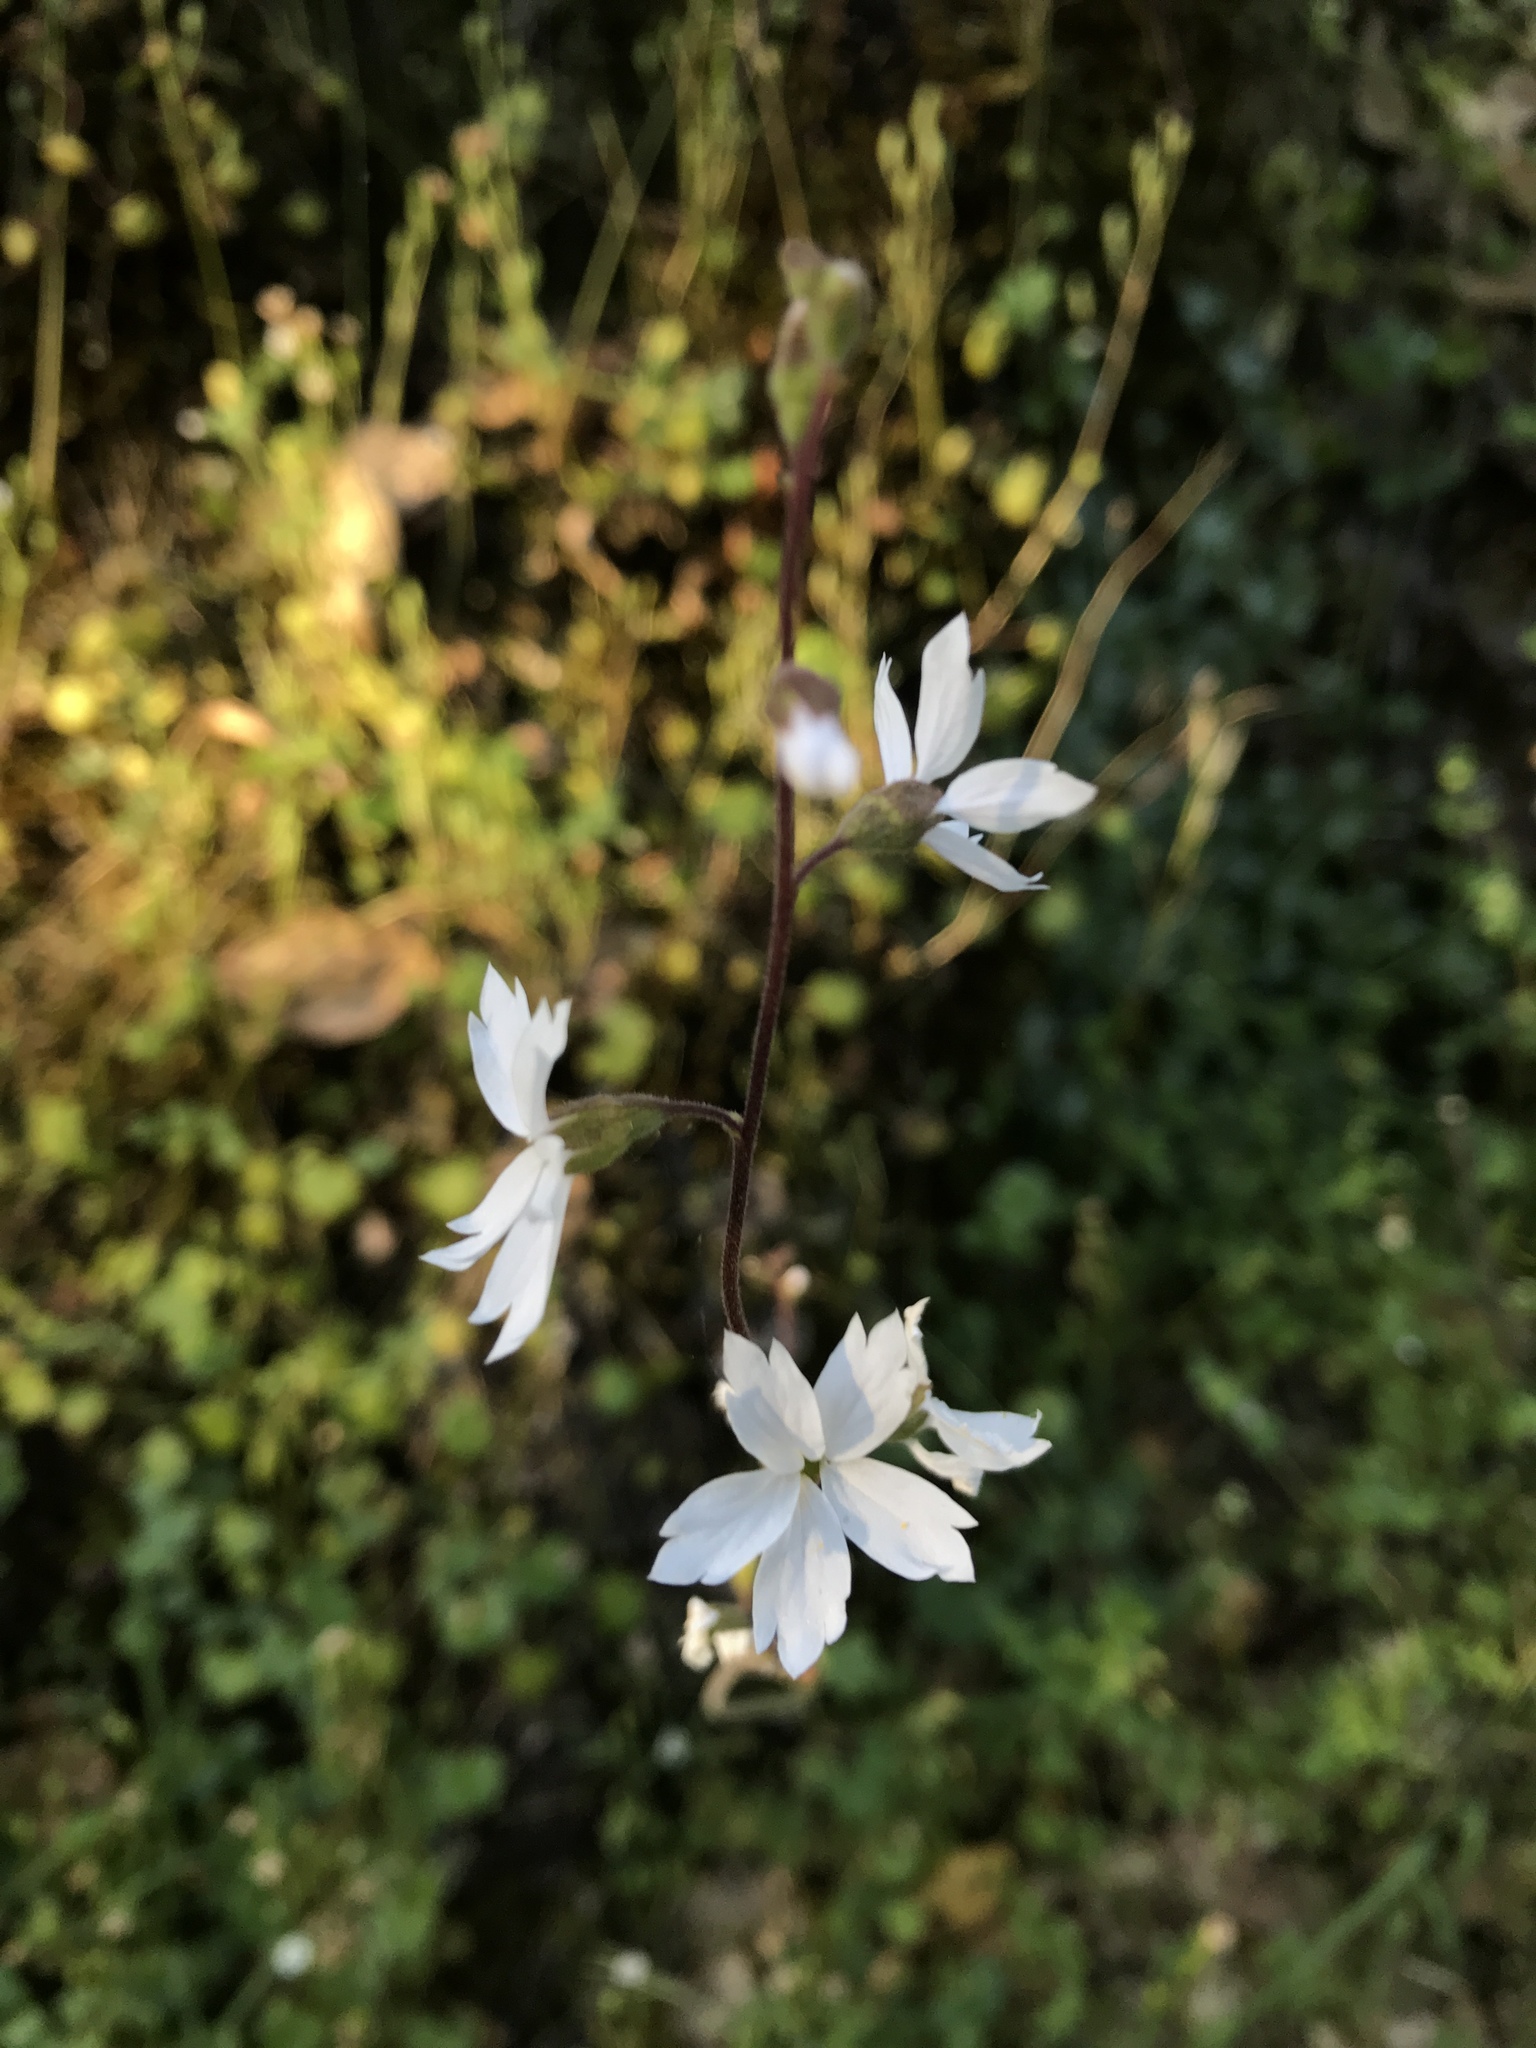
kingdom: Plantae
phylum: Tracheophyta
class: Magnoliopsida
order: Saxifragales
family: Saxifragaceae
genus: Lithophragma
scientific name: Lithophragma affine
